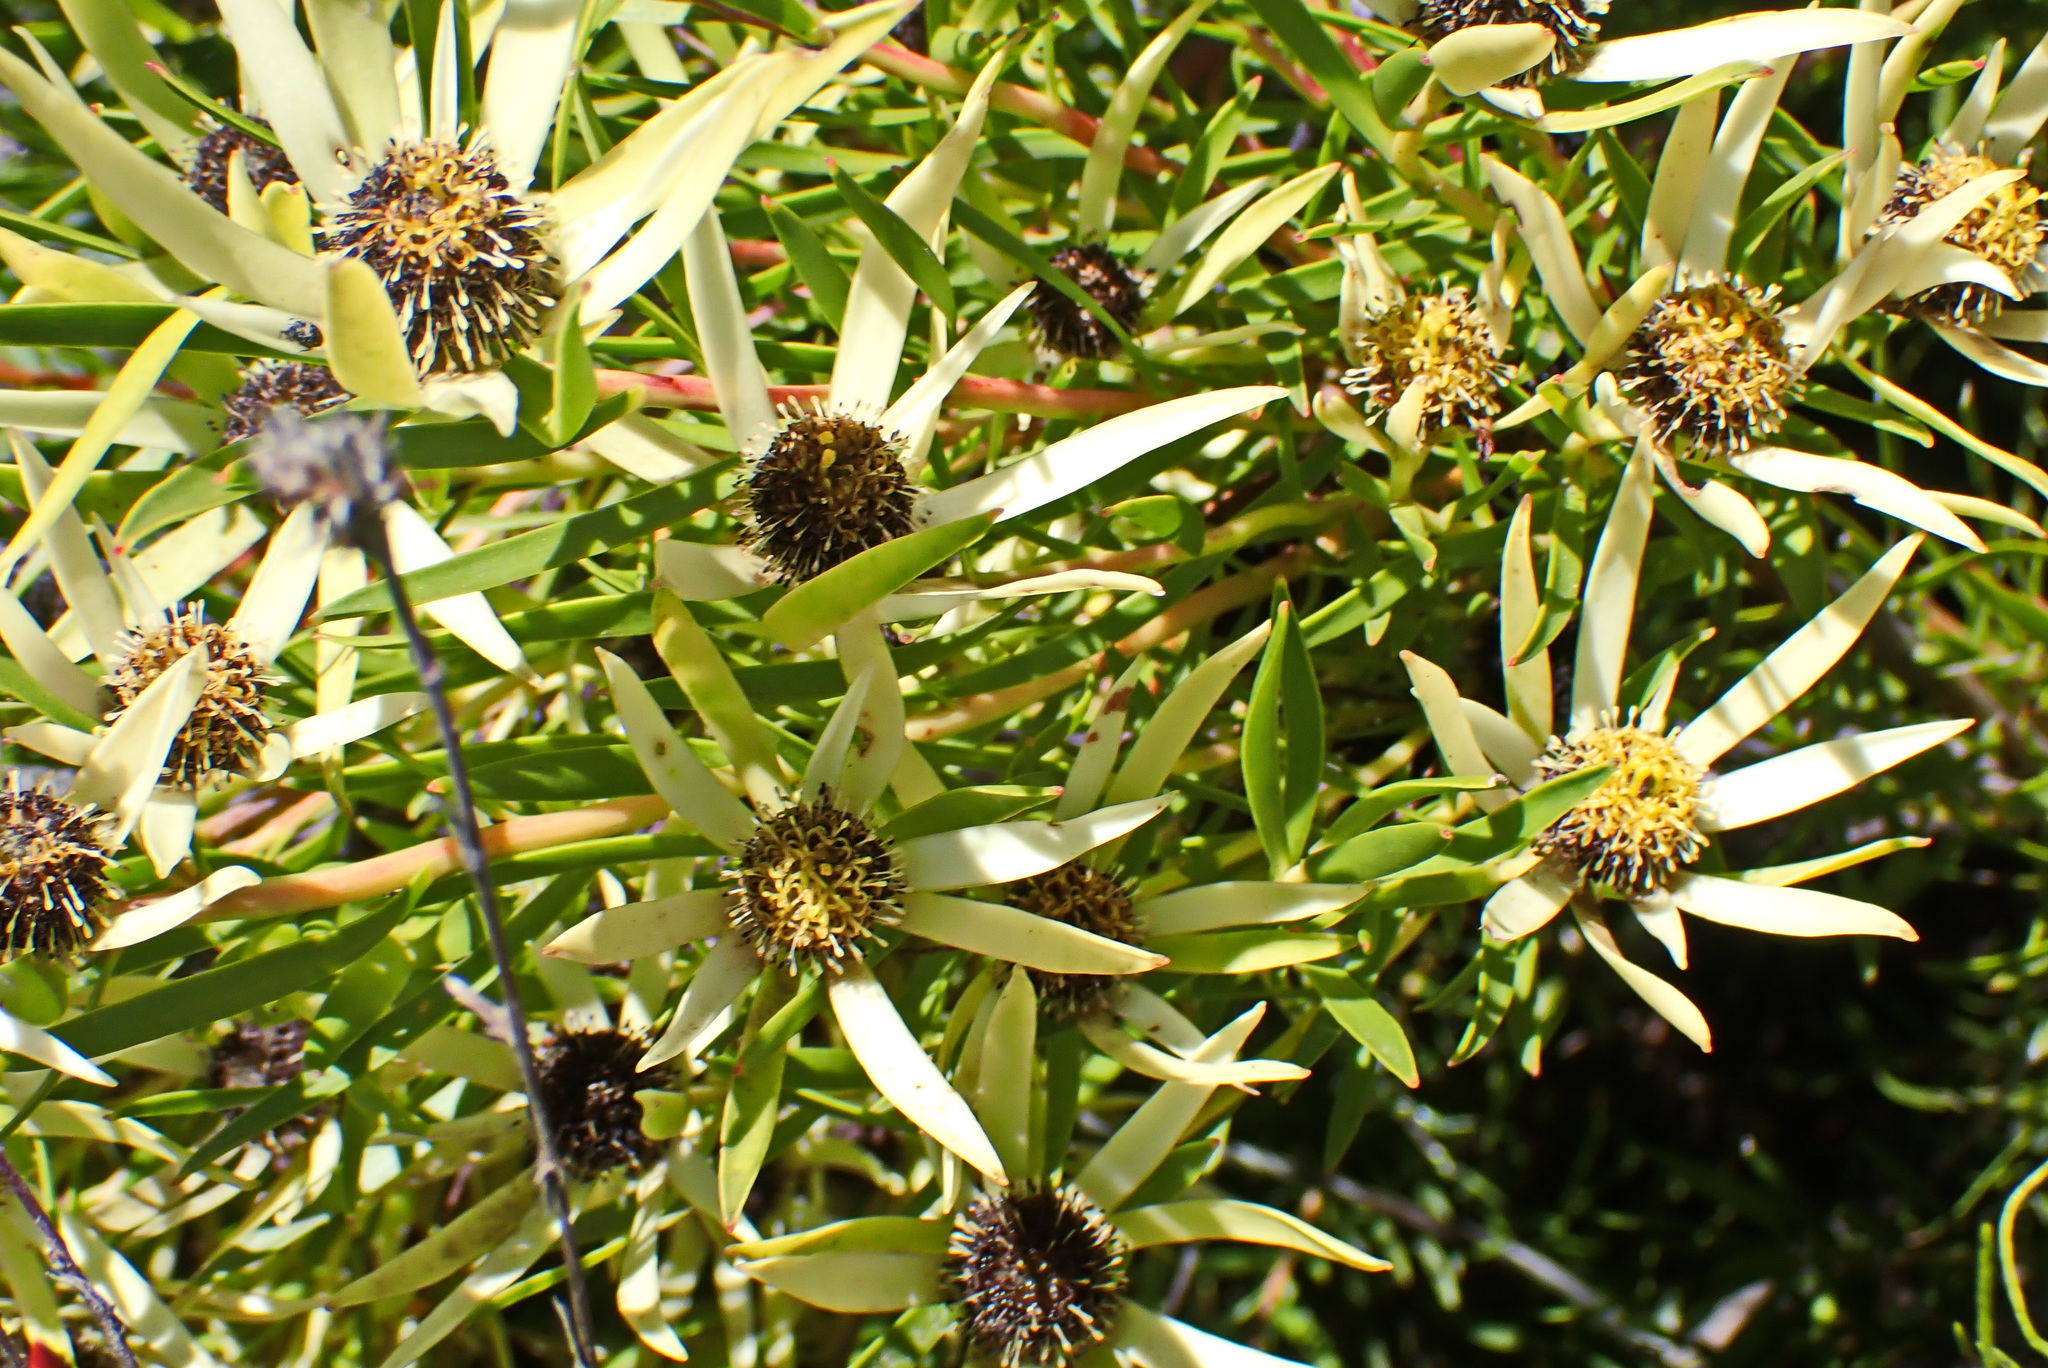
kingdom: Plantae
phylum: Tracheophyta
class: Magnoliopsida
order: Proteales
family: Proteaceae
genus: Leucadendron
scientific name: Leucadendron spissifolium
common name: Spear-leaf conebush
